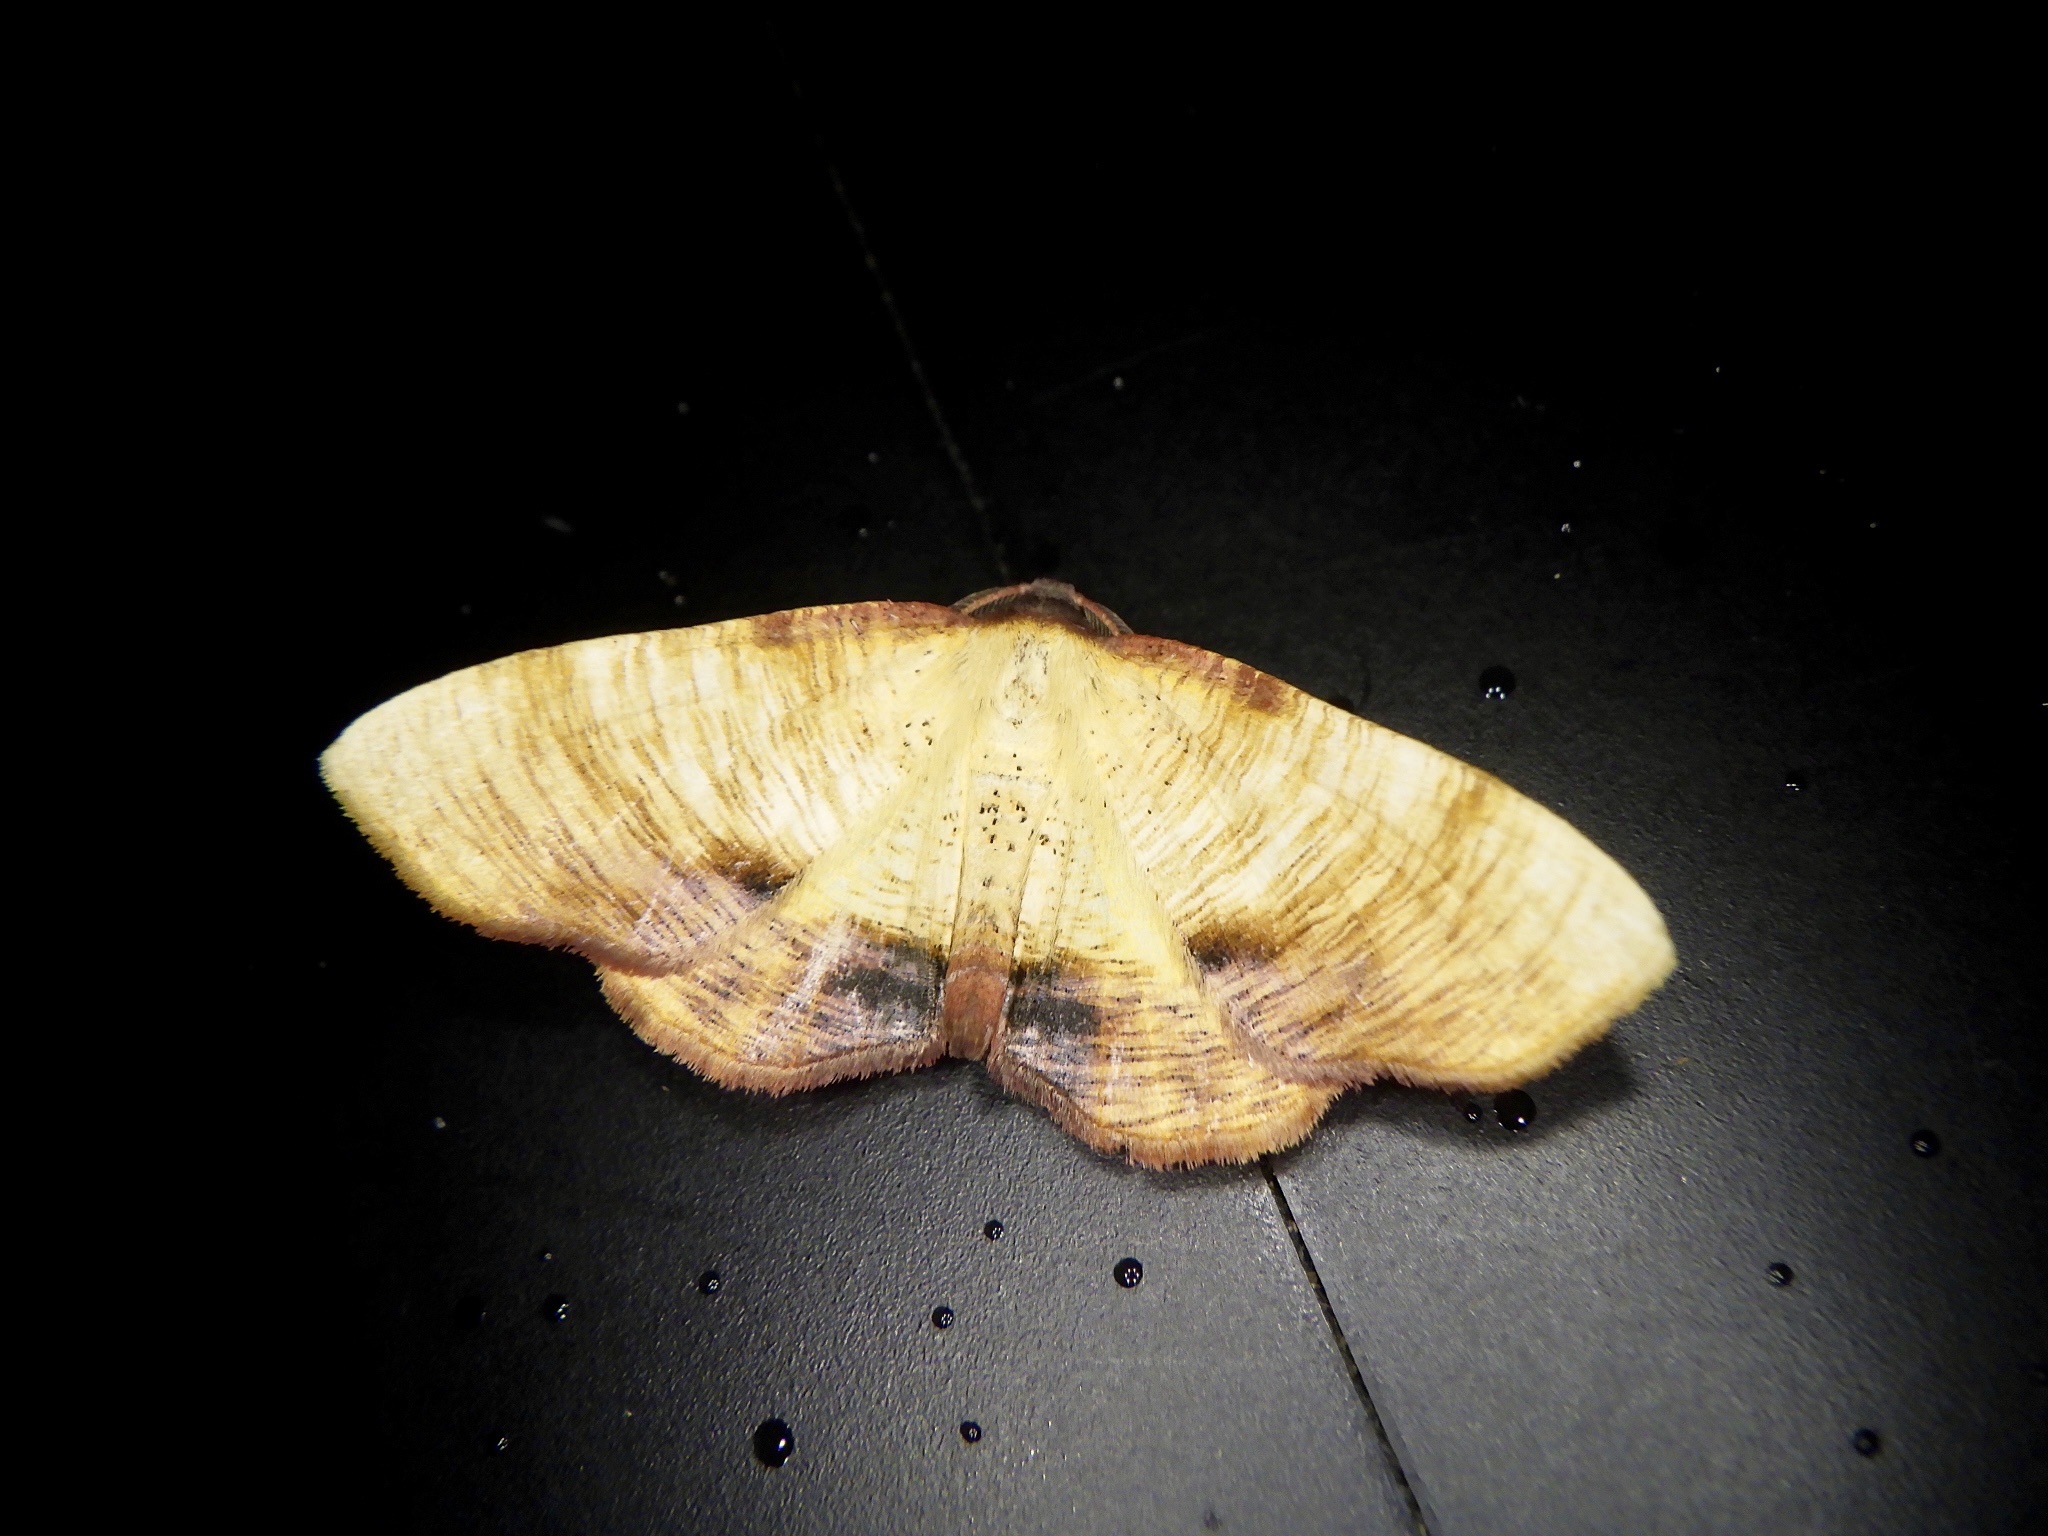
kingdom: Animalia
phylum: Arthropoda
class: Insecta
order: Lepidoptera
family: Geometridae
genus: Plagodis
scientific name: Plagodis dolabraria
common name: Scorched wing
